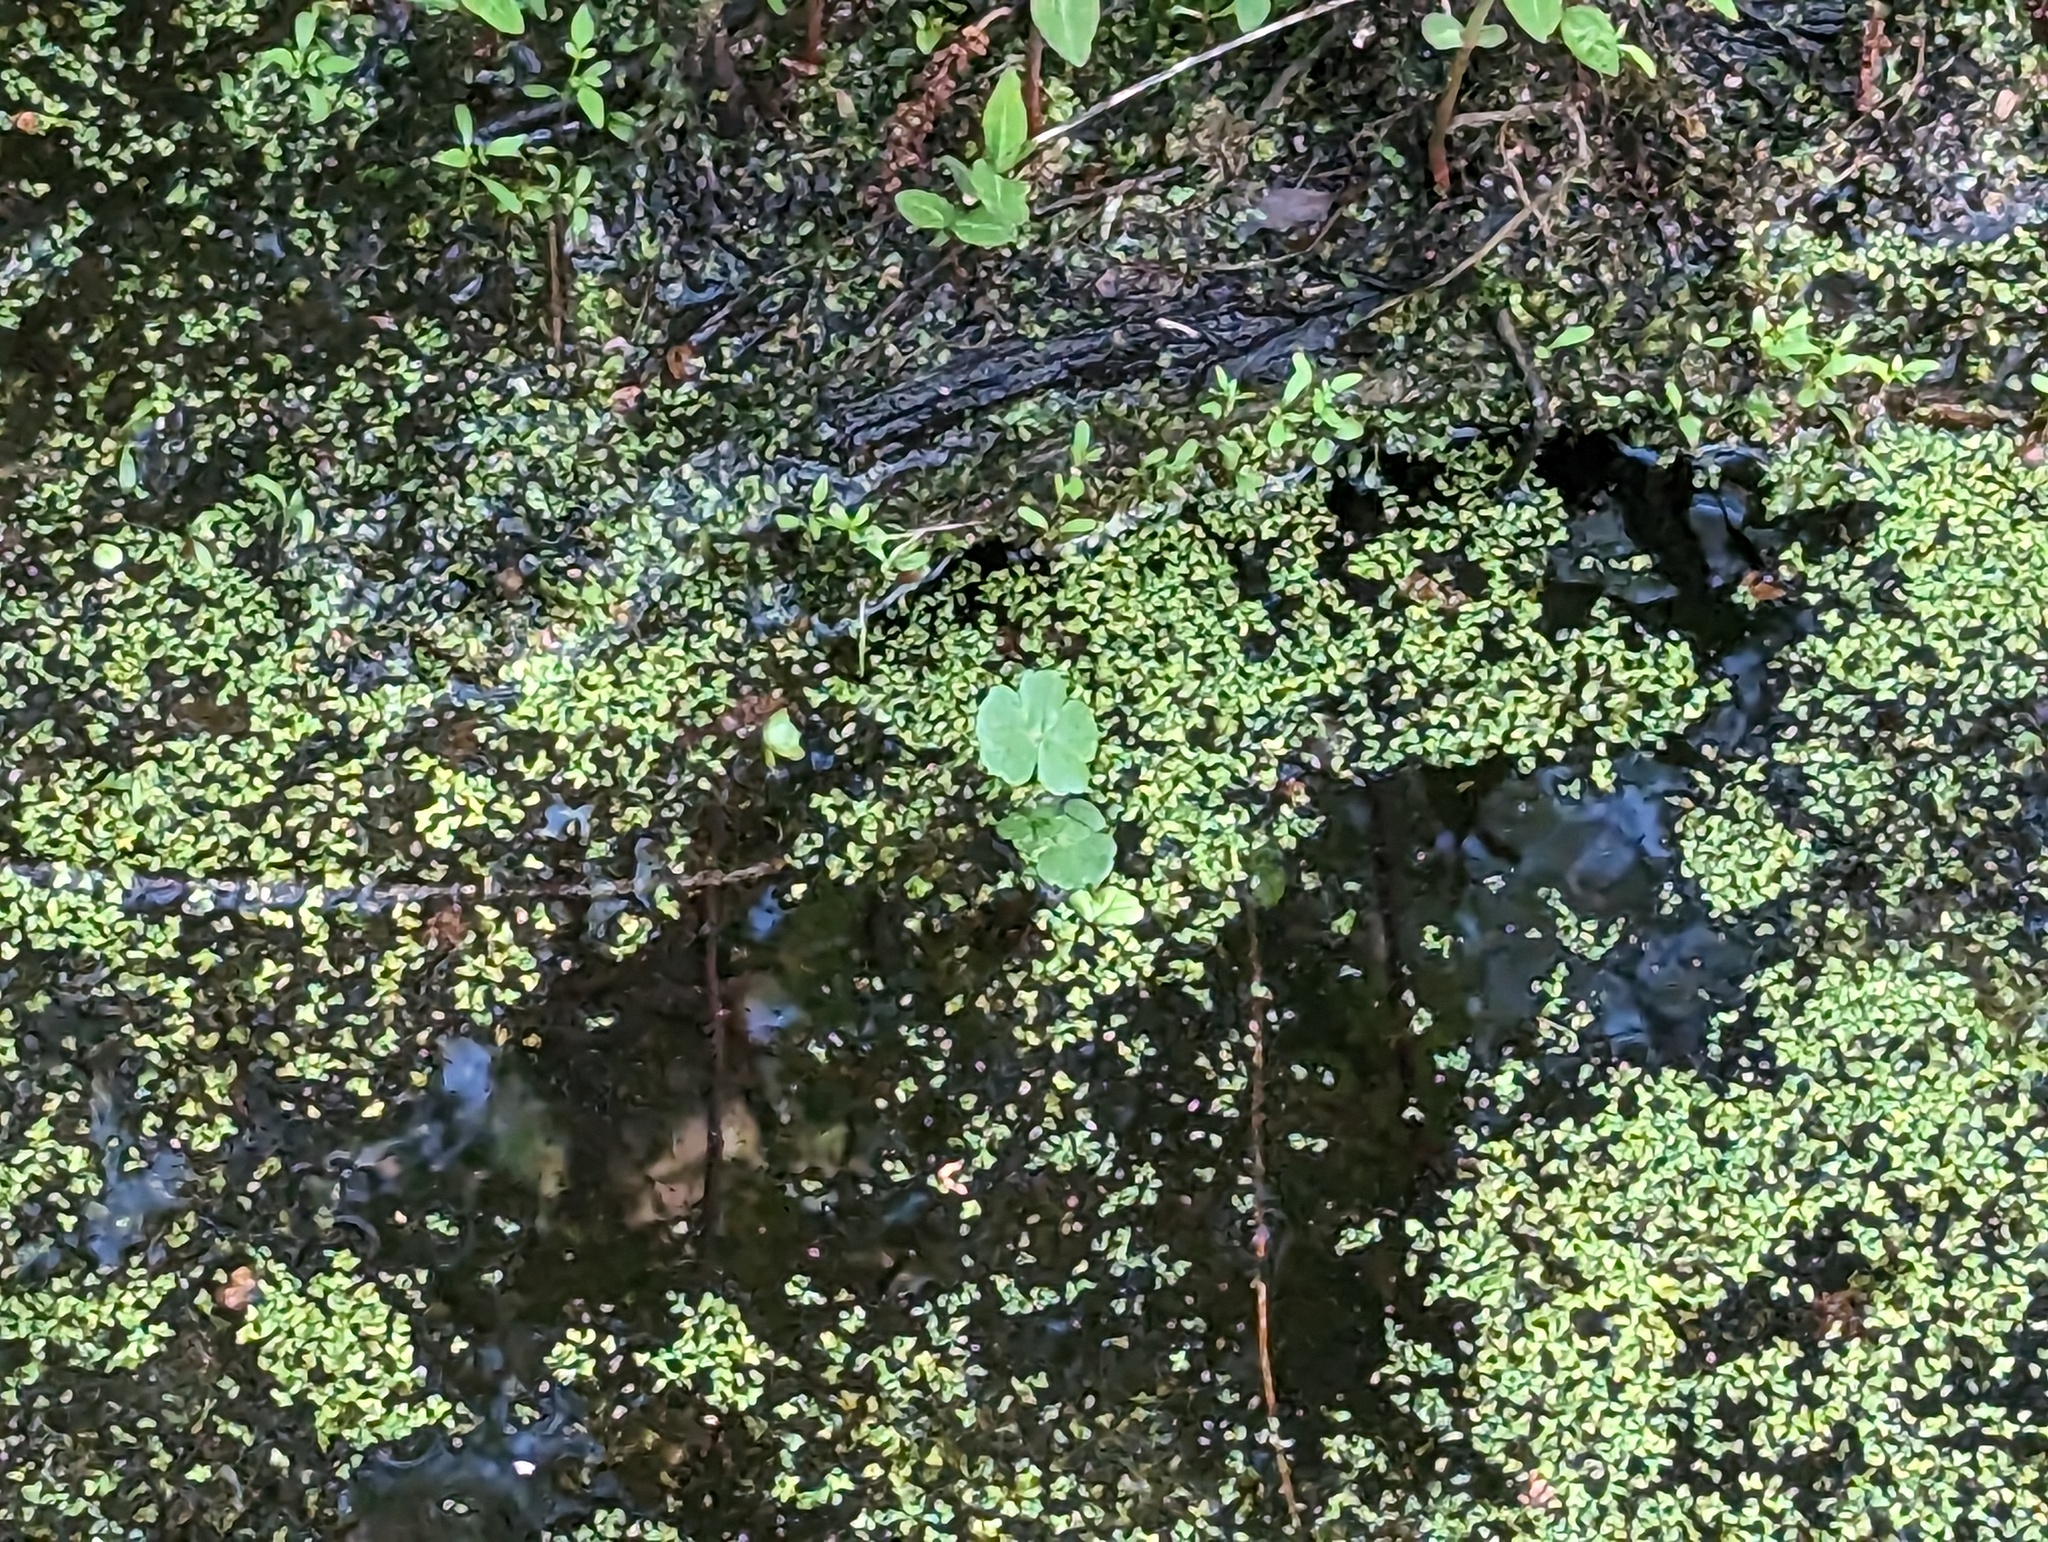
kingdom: Plantae
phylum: Tracheophyta
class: Magnoliopsida
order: Apiales
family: Araliaceae
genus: Hydrocotyle
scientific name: Hydrocotyle ranunculoides
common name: Floating pennywort
